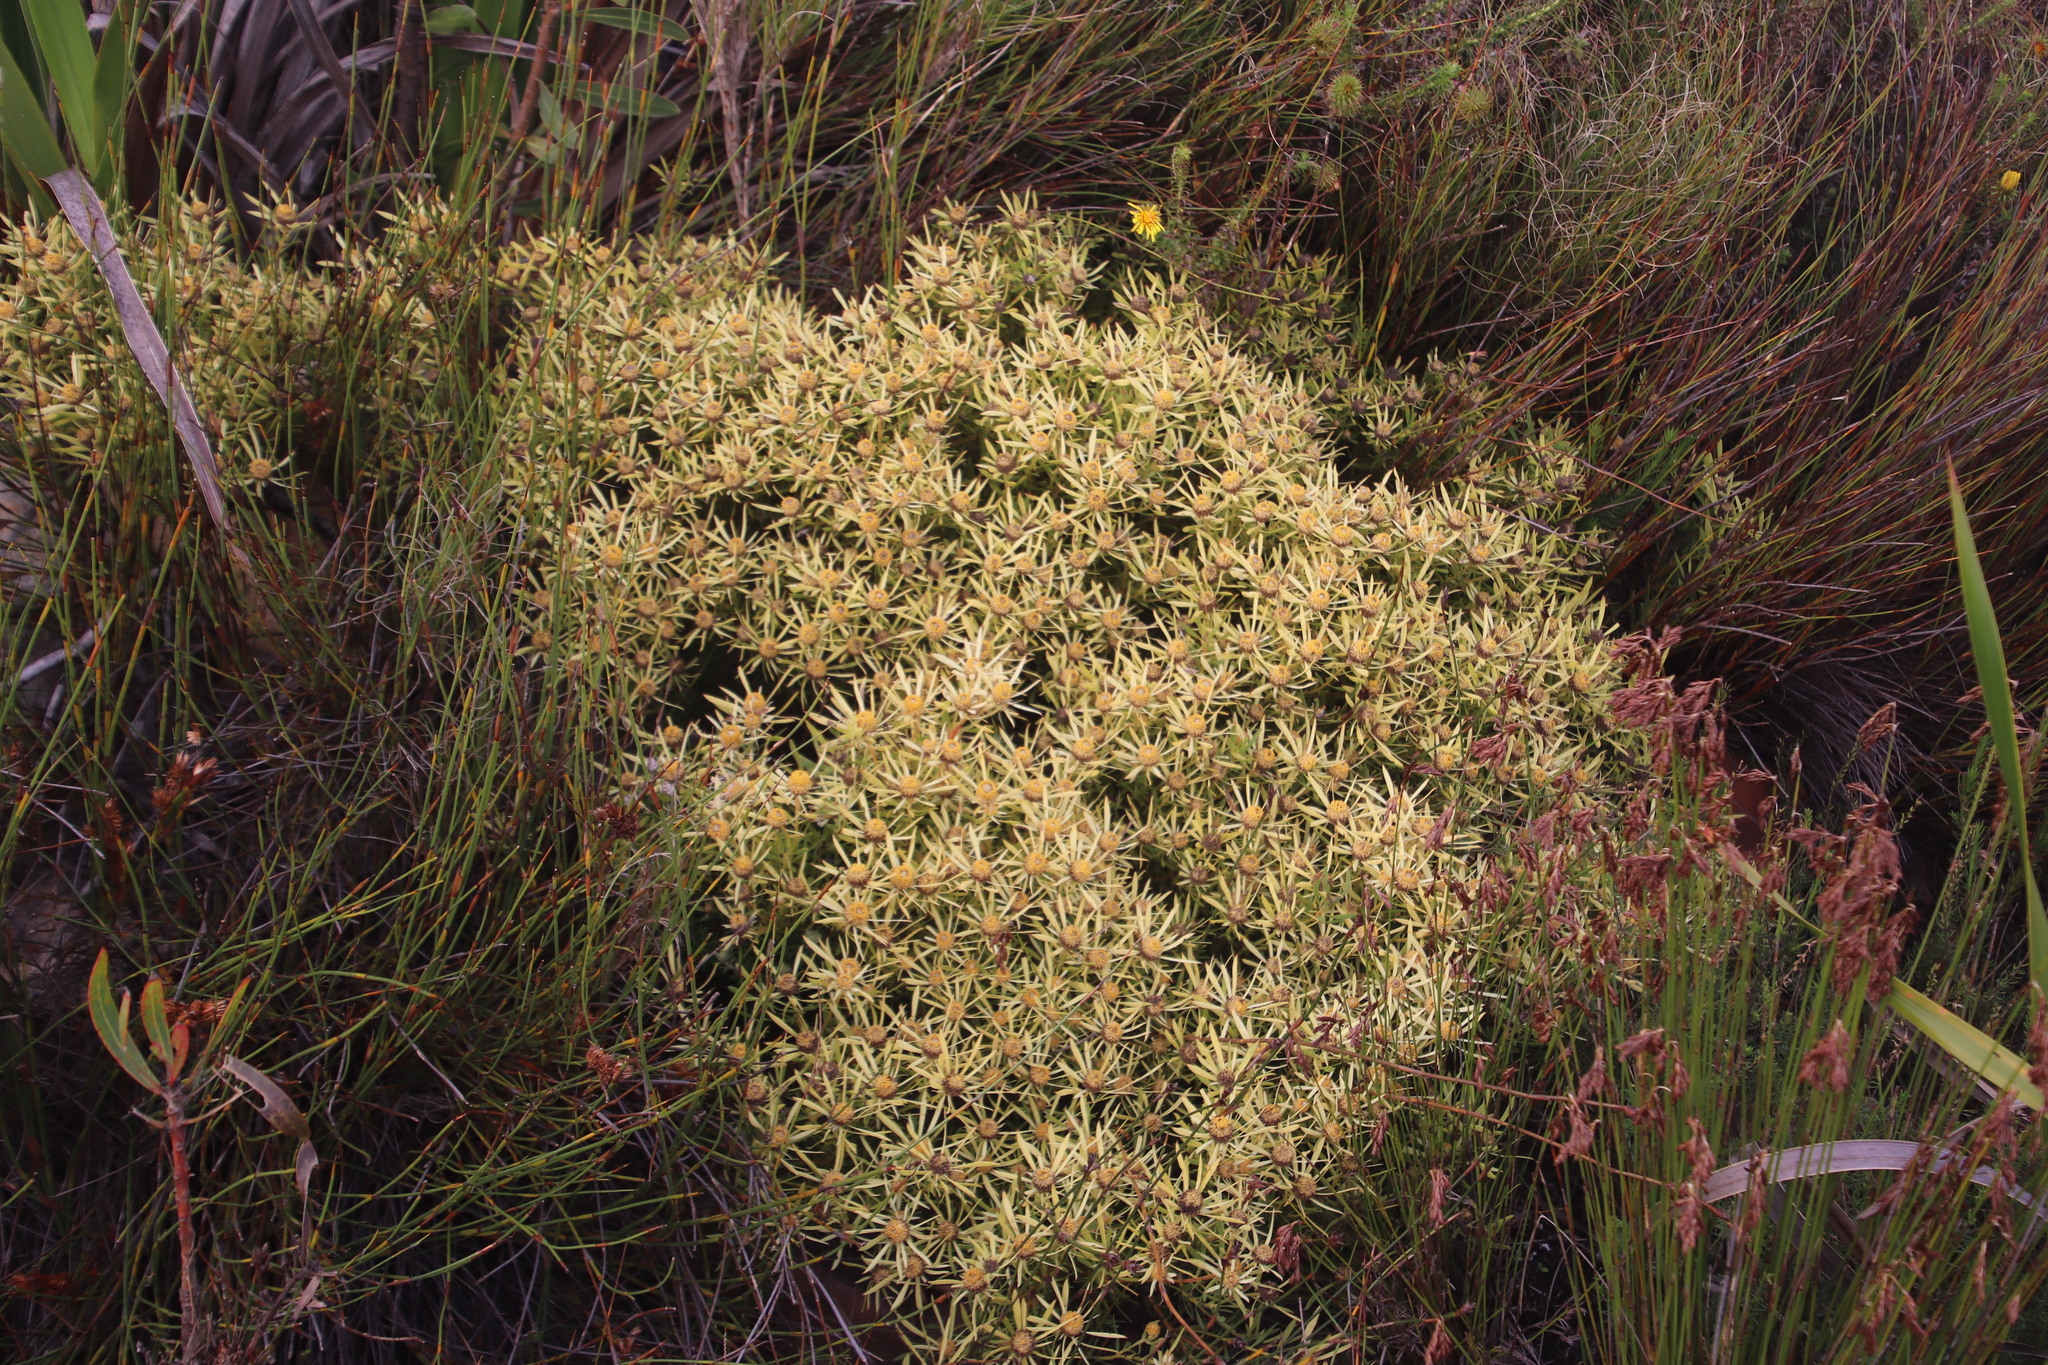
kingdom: Plantae
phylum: Tracheophyta
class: Magnoliopsida
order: Proteales
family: Proteaceae
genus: Leucadendron
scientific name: Leucadendron salignum
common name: Common sunshine conebush
